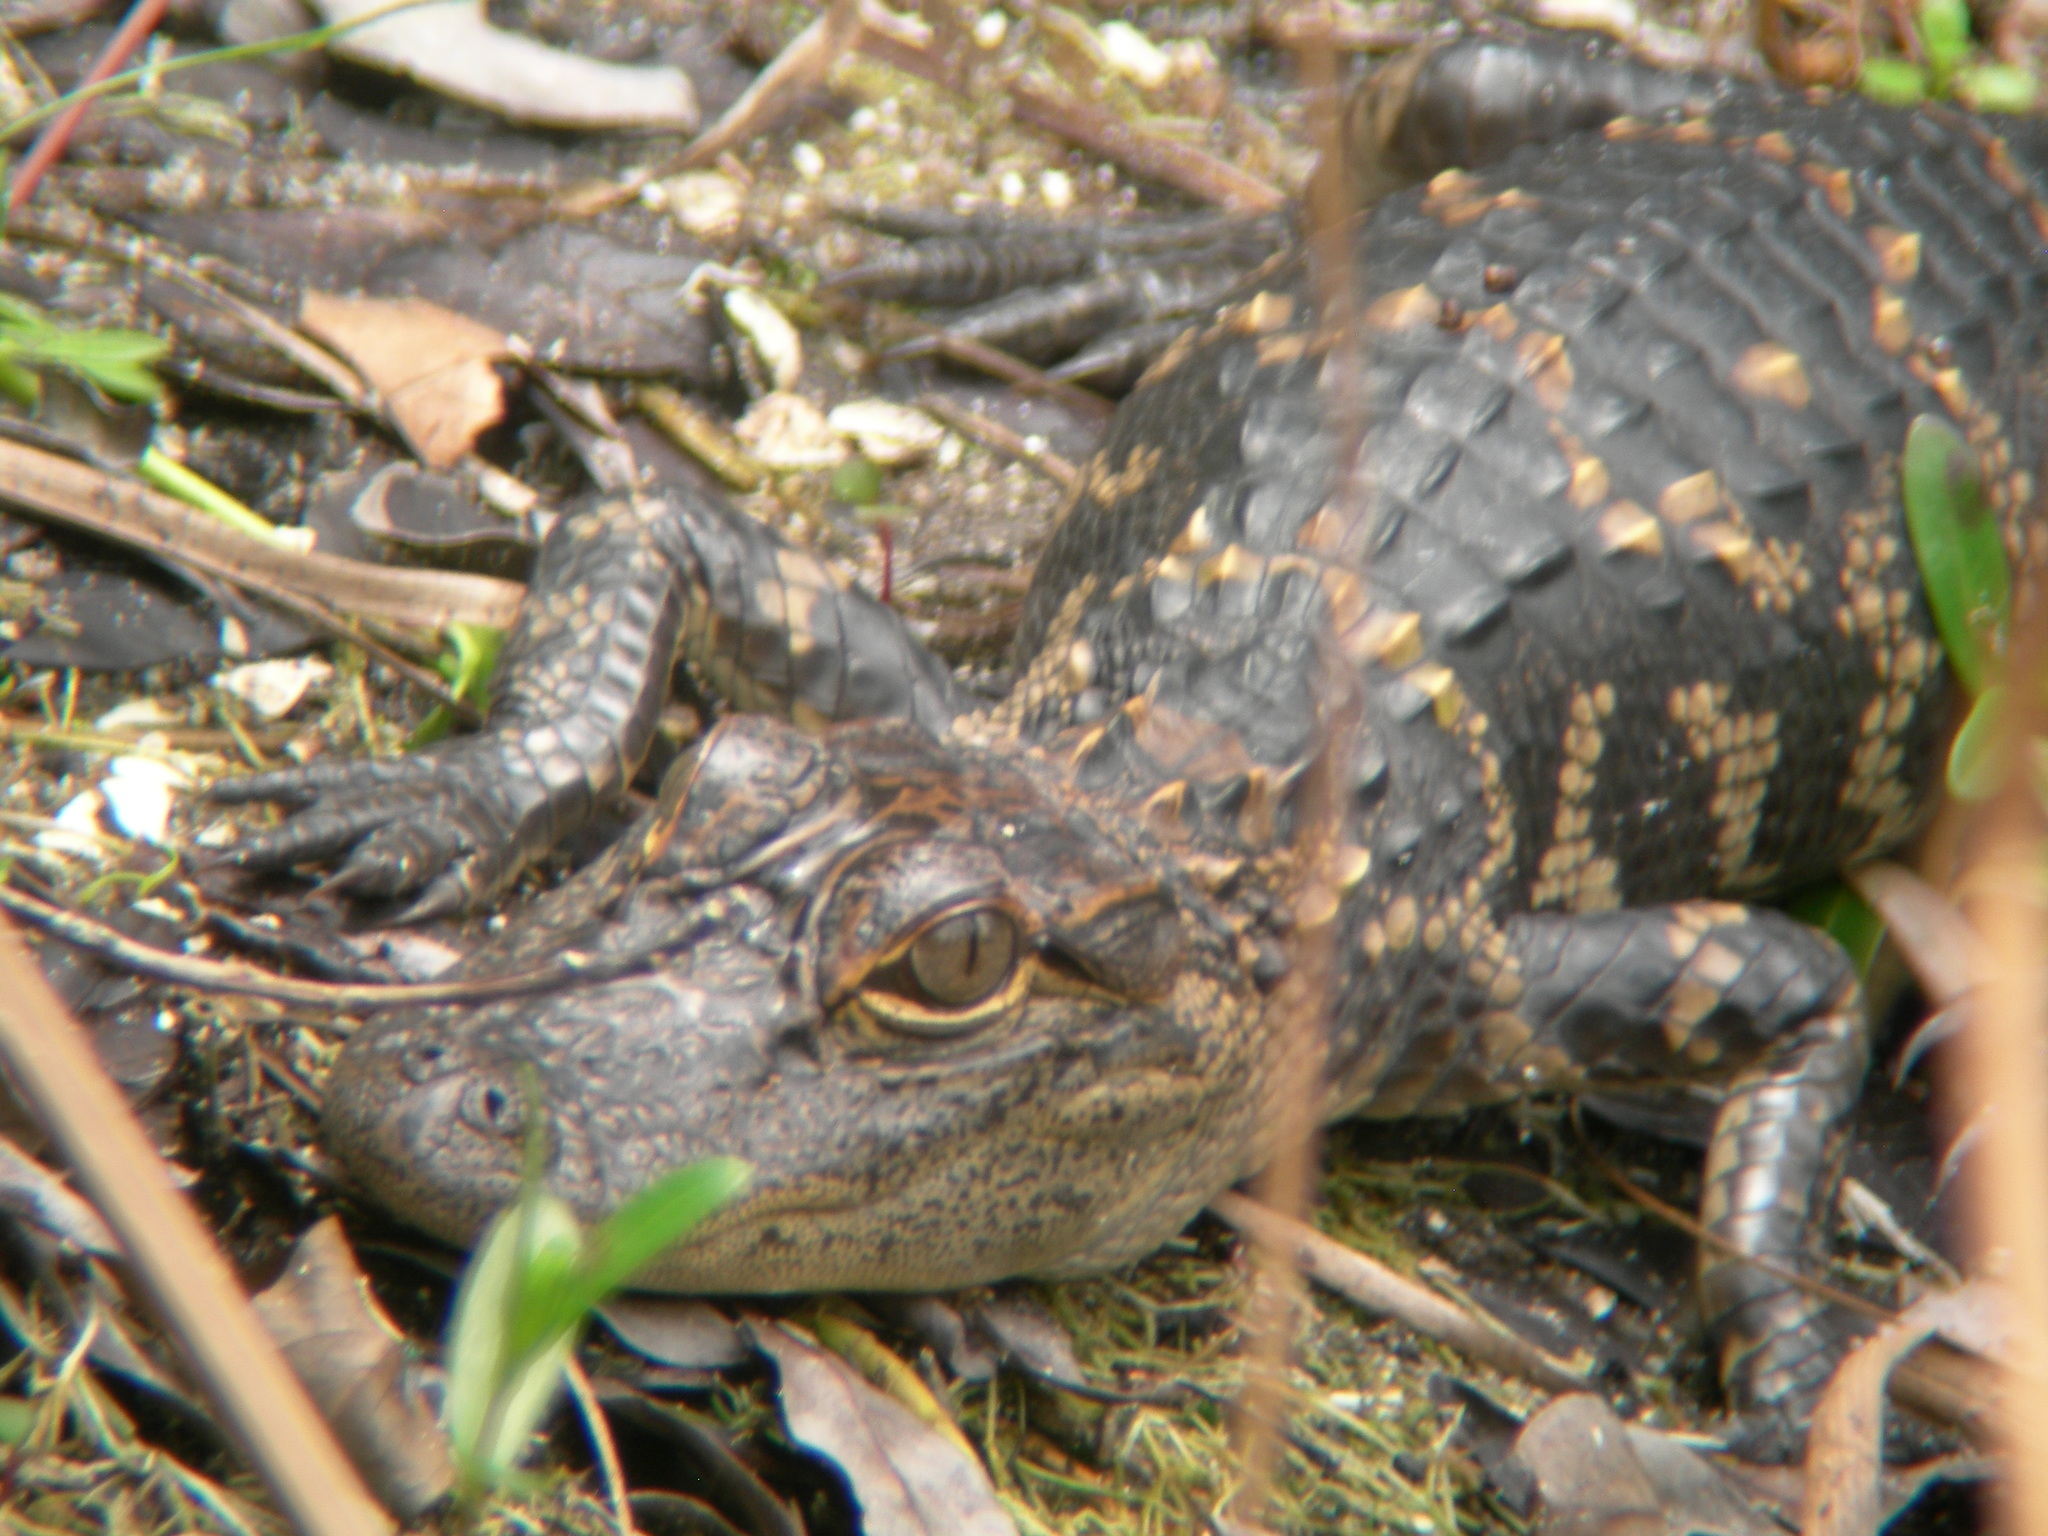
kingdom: Animalia
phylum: Chordata
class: Crocodylia
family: Alligatoridae
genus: Alligator
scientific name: Alligator mississippiensis
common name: American alligator
